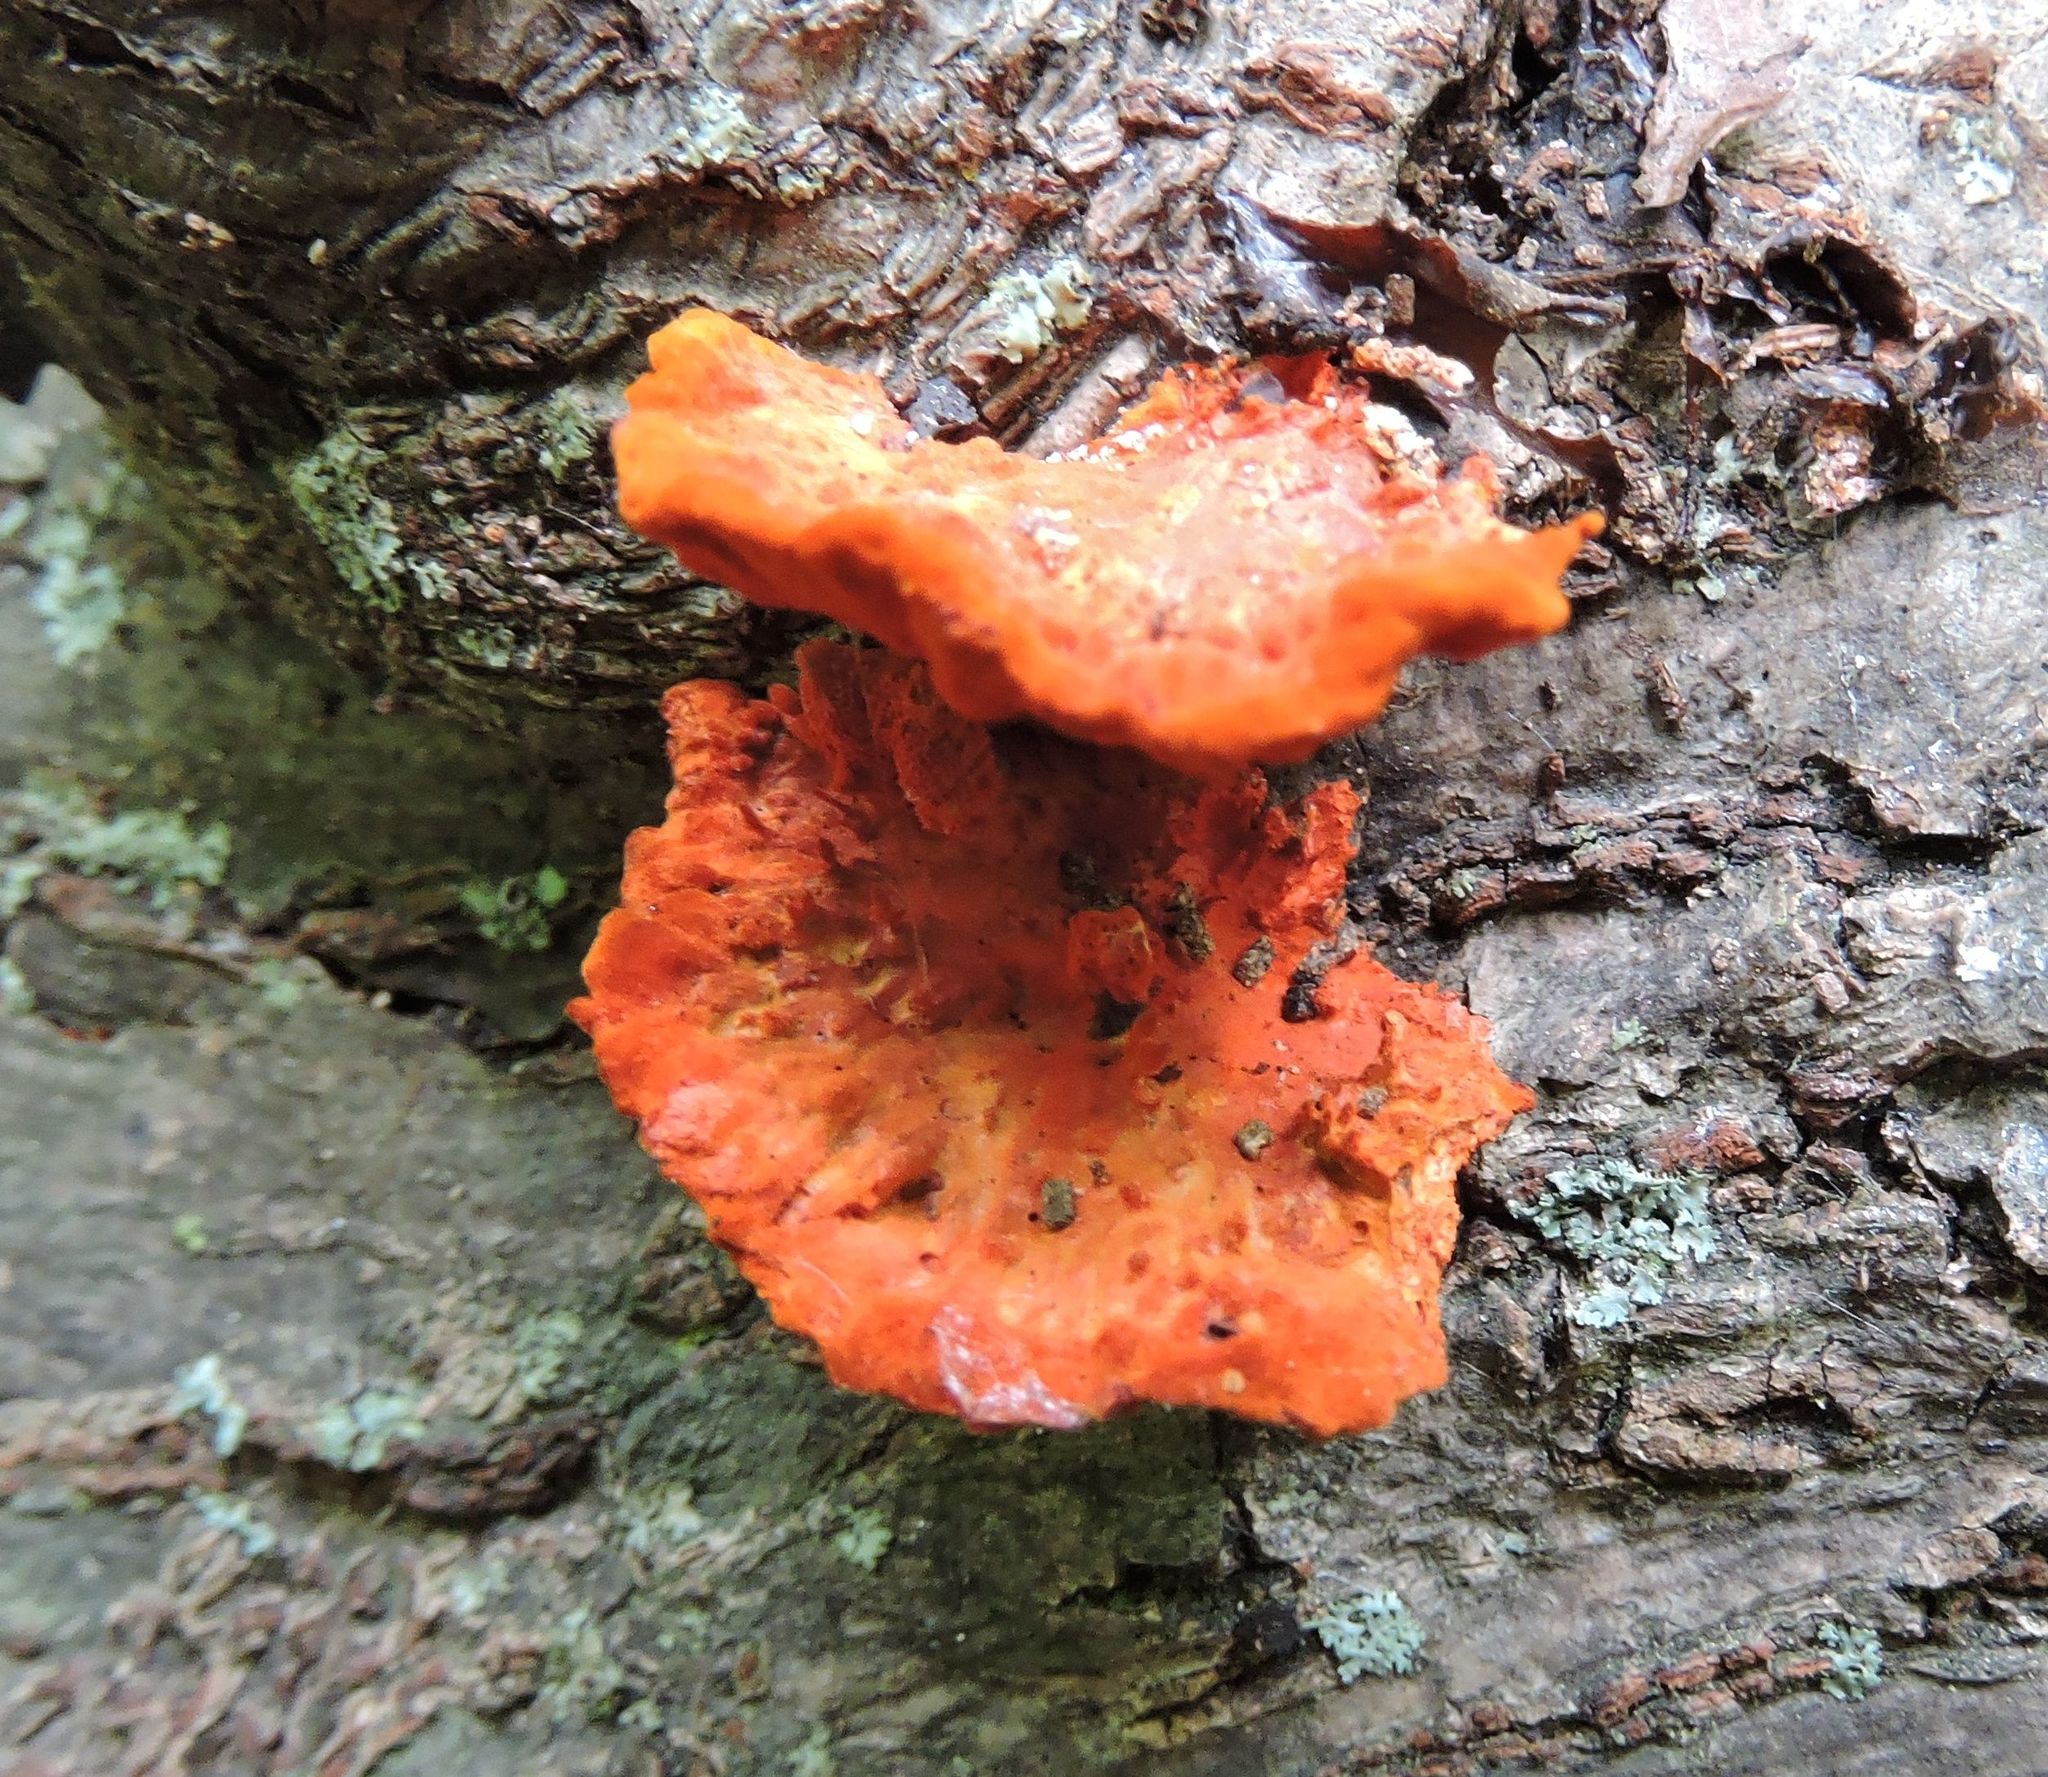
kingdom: Fungi
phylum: Basidiomycota
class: Agaricomycetes
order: Polyporales
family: Polyporaceae
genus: Trametes
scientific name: Trametes cinnabarina
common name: Northern cinnabar polypore
